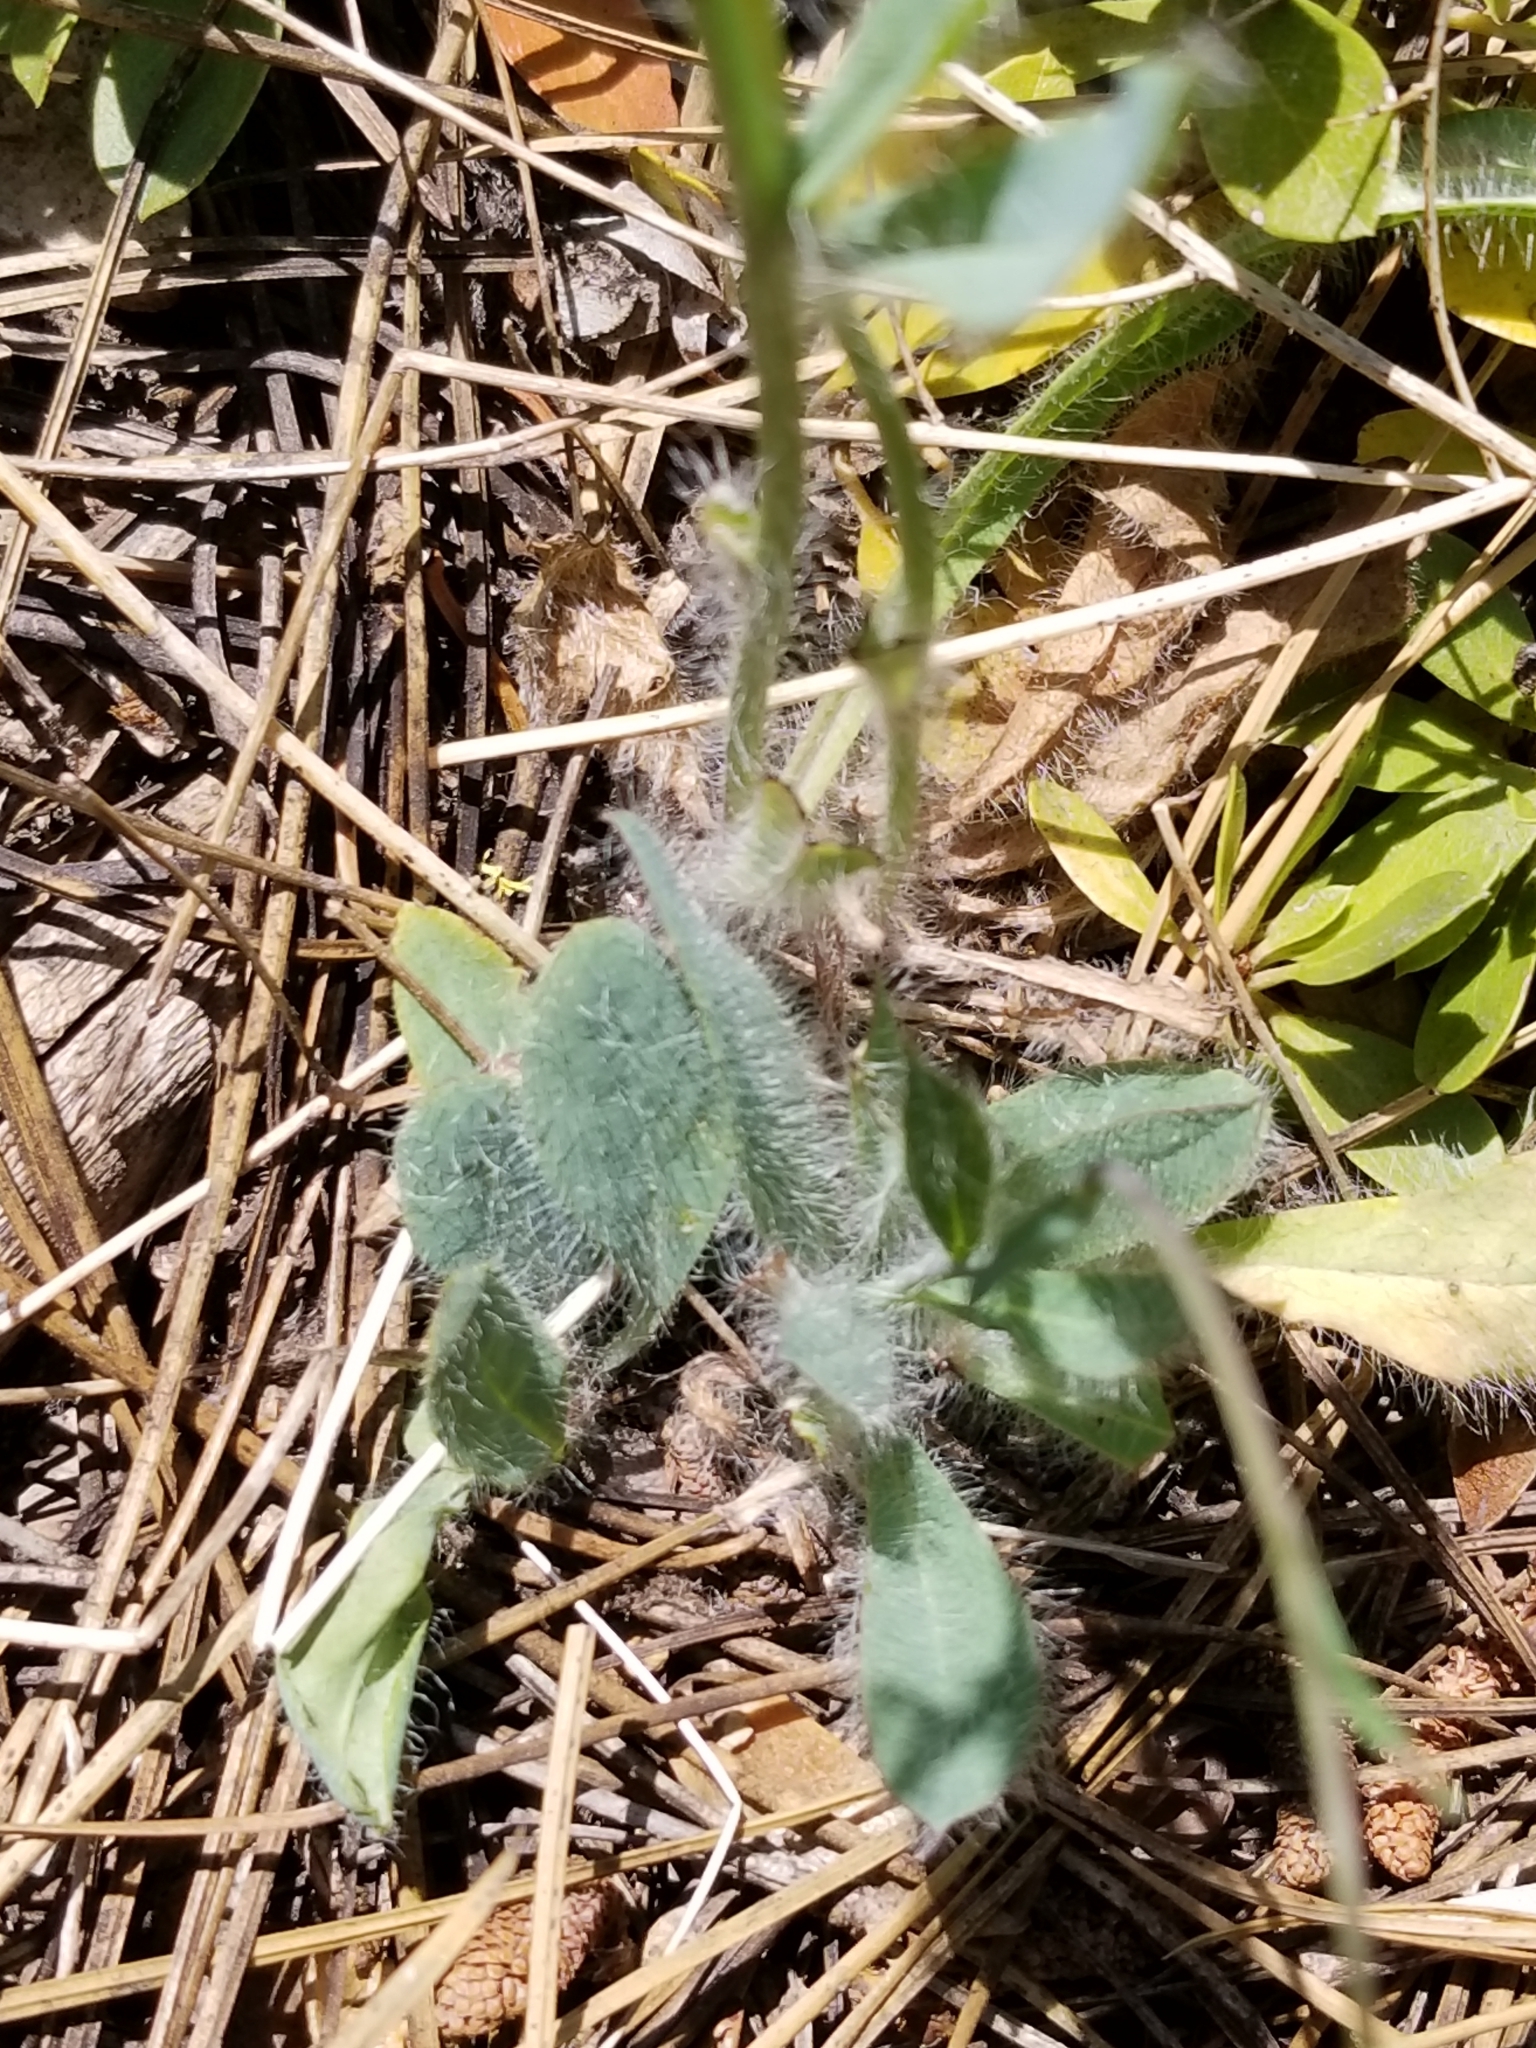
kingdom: Plantae
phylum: Tracheophyta
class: Magnoliopsida
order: Asterales
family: Asteraceae
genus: Hieracium
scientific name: Hieracium albiflorum
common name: White hawkweed
